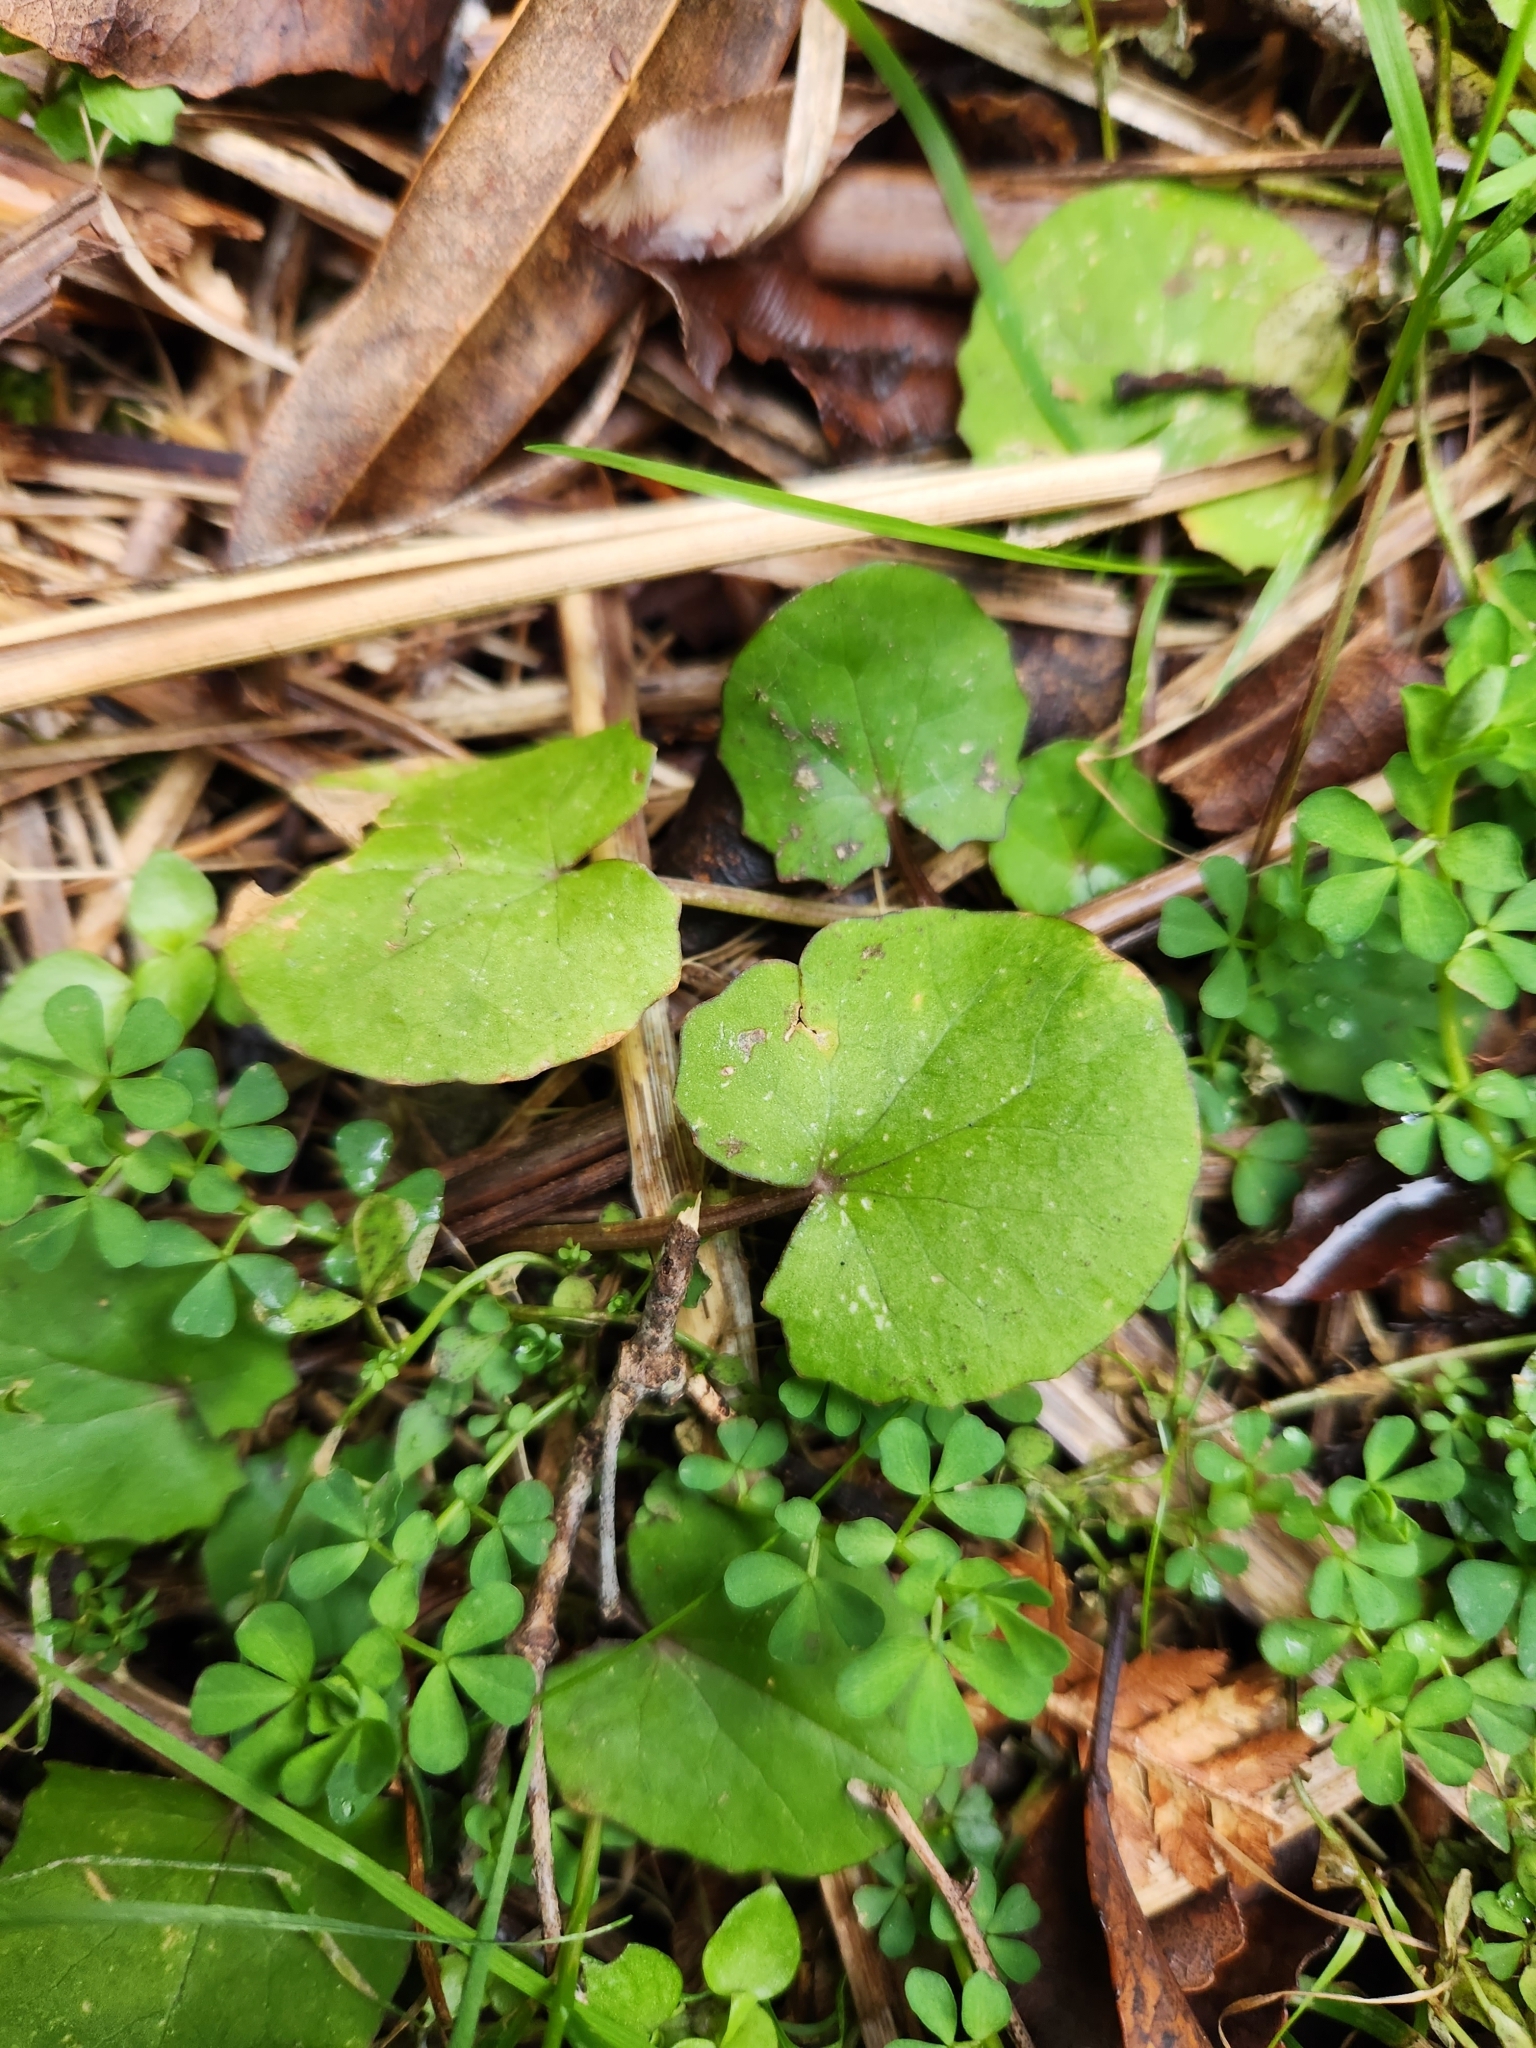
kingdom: Plantae
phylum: Tracheophyta
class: Magnoliopsida
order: Apiales
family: Apiaceae
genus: Centella
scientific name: Centella uniflora
